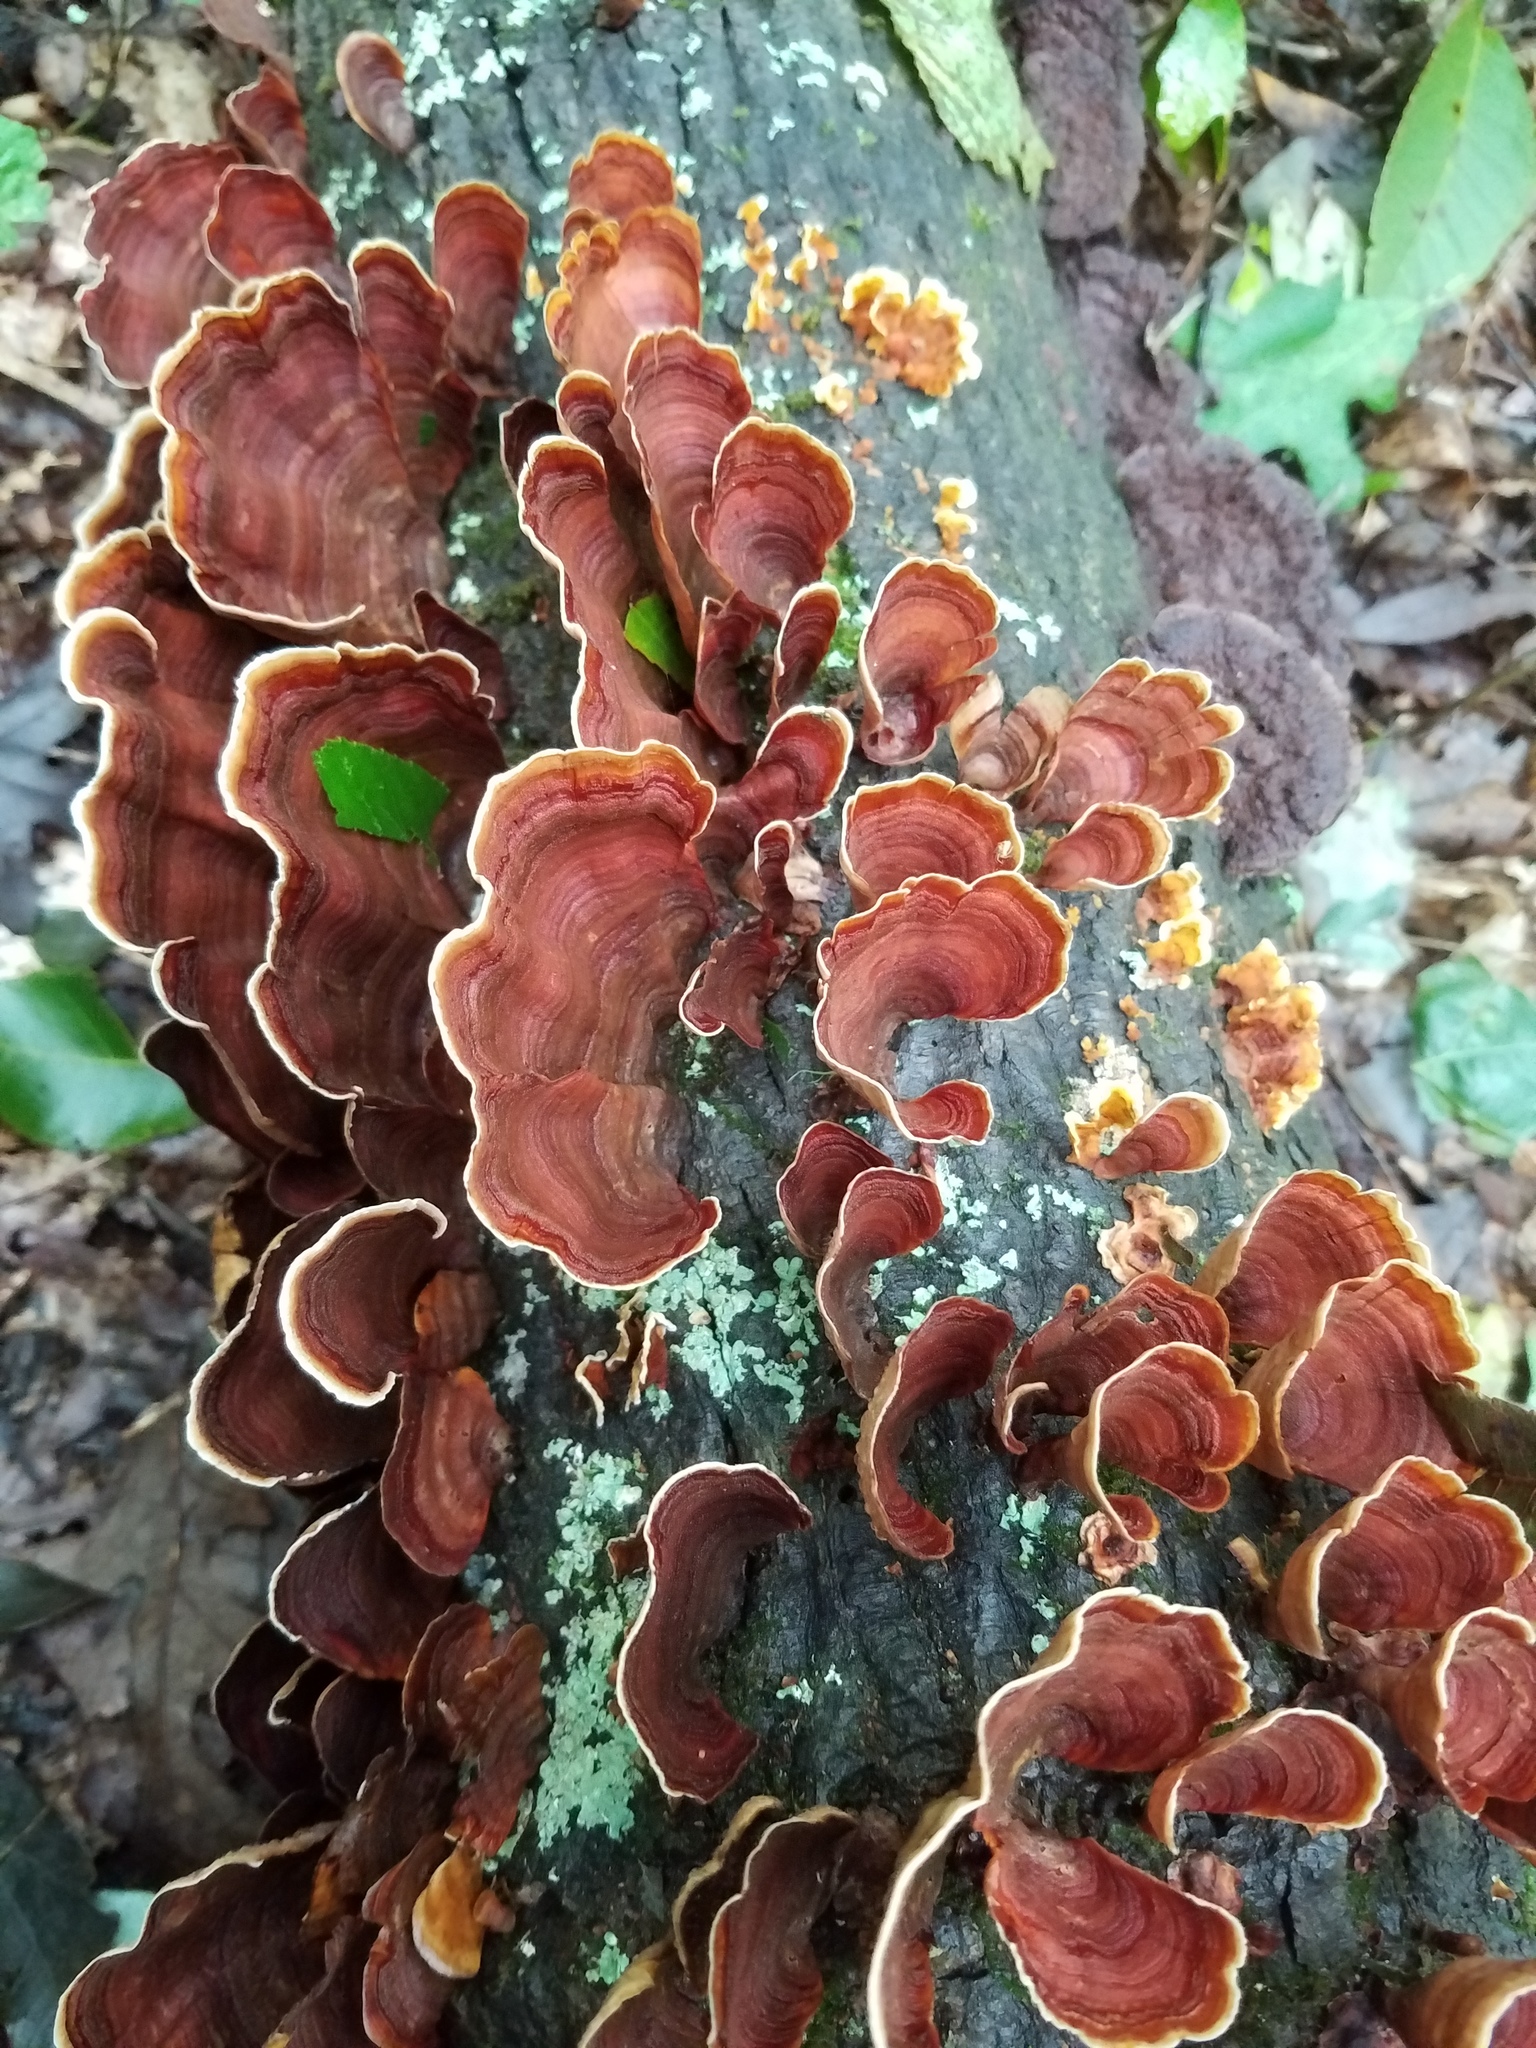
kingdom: Fungi
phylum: Basidiomycota
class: Agaricomycetes
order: Russulales
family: Stereaceae
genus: Stereum
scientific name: Stereum ostrea
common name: False turkeytail
